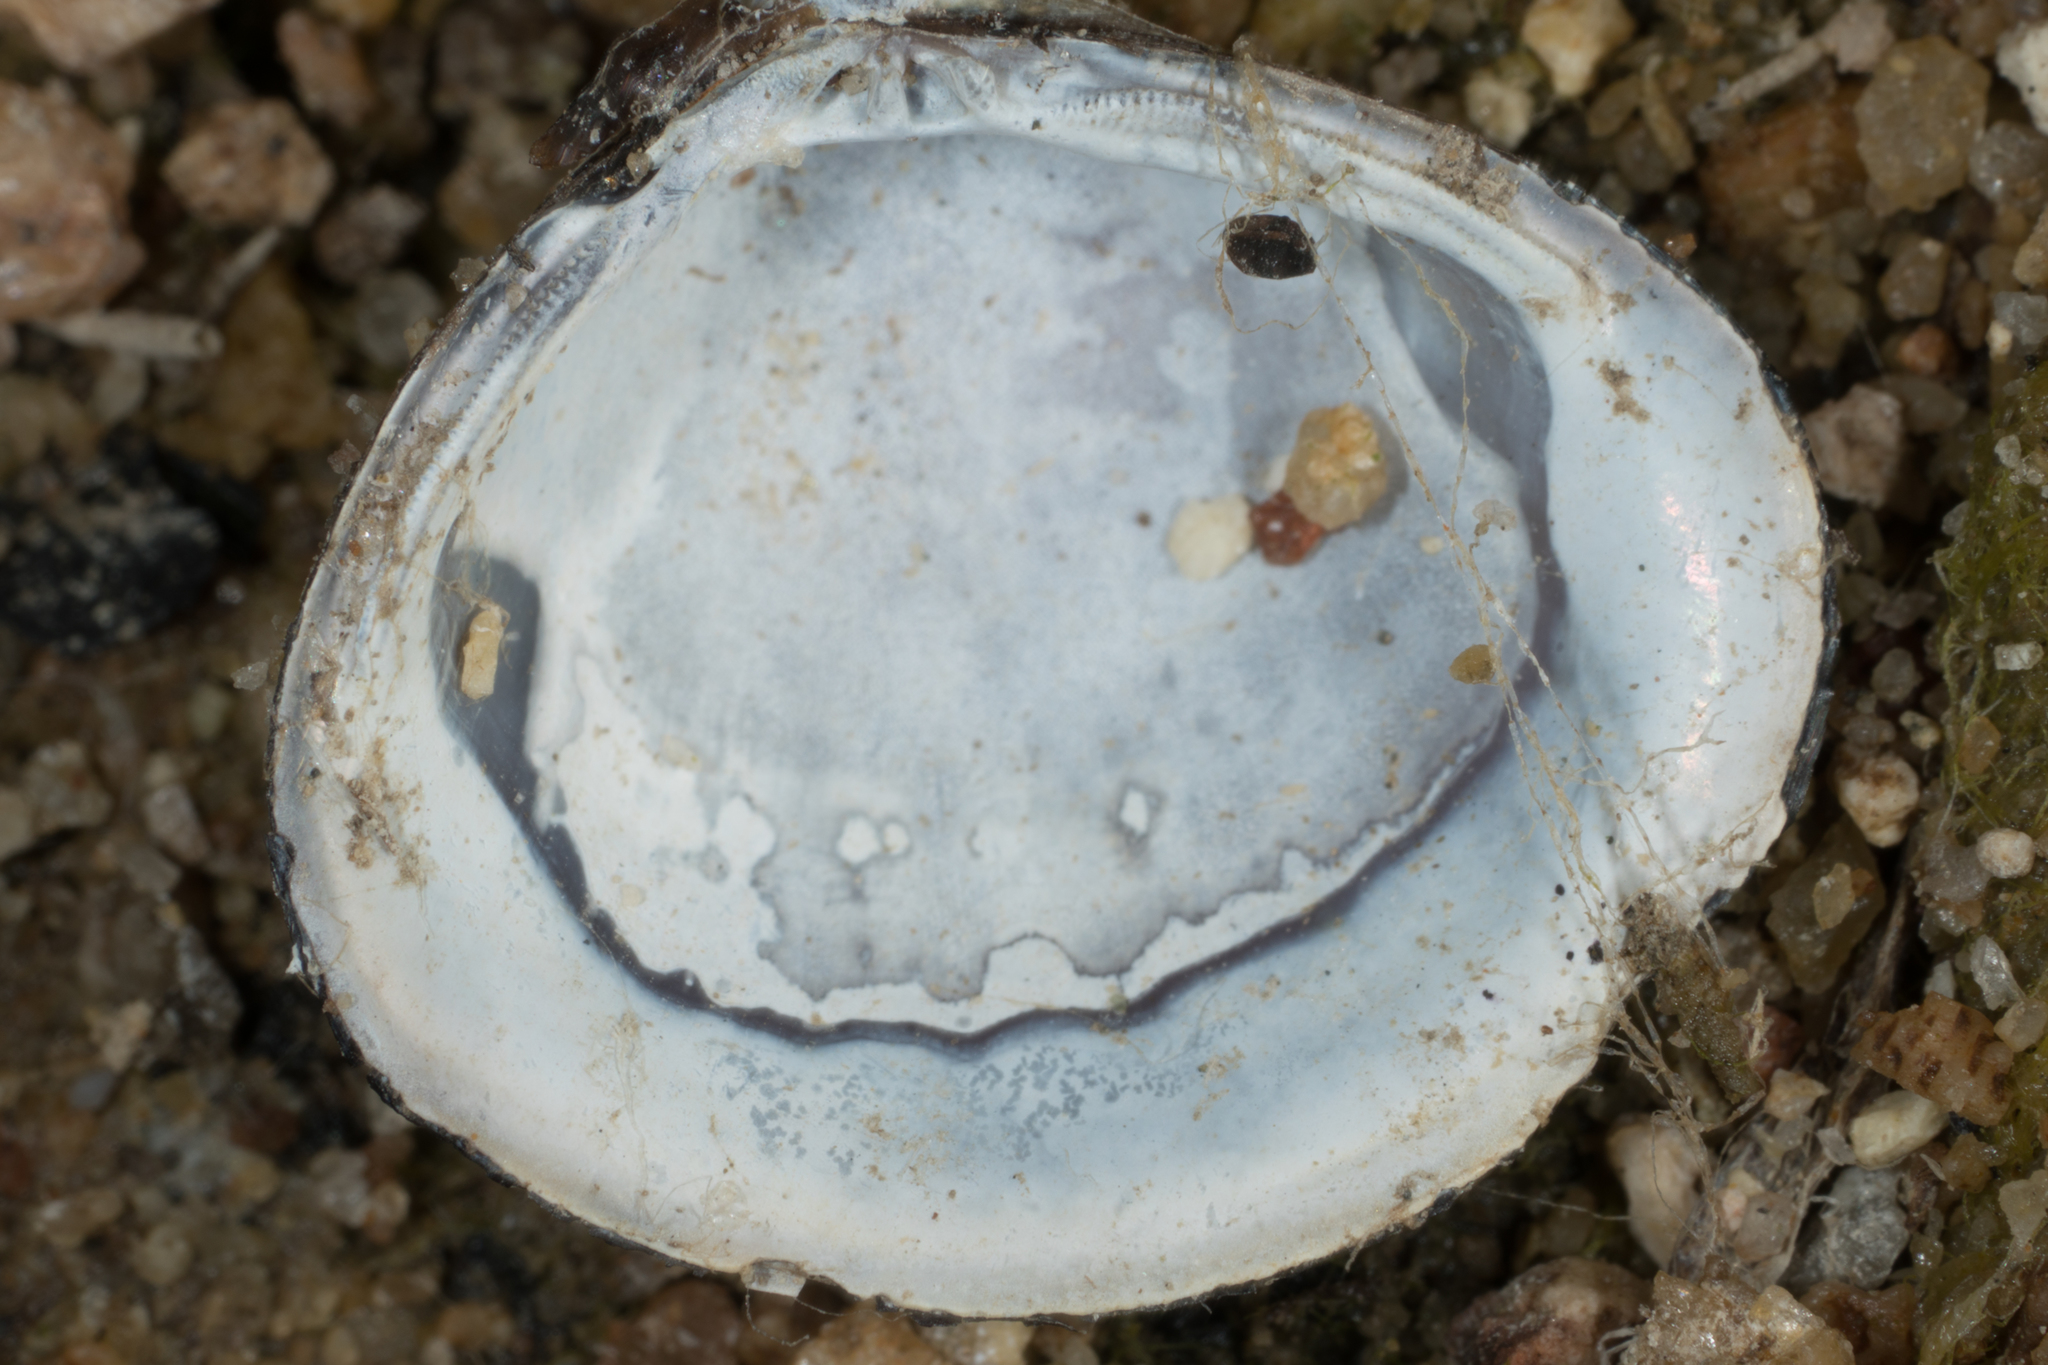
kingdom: Animalia
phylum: Mollusca
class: Bivalvia
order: Venerida
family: Cyrenidae
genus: Corbicula
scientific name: Corbicula fluminea
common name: Asian clam
